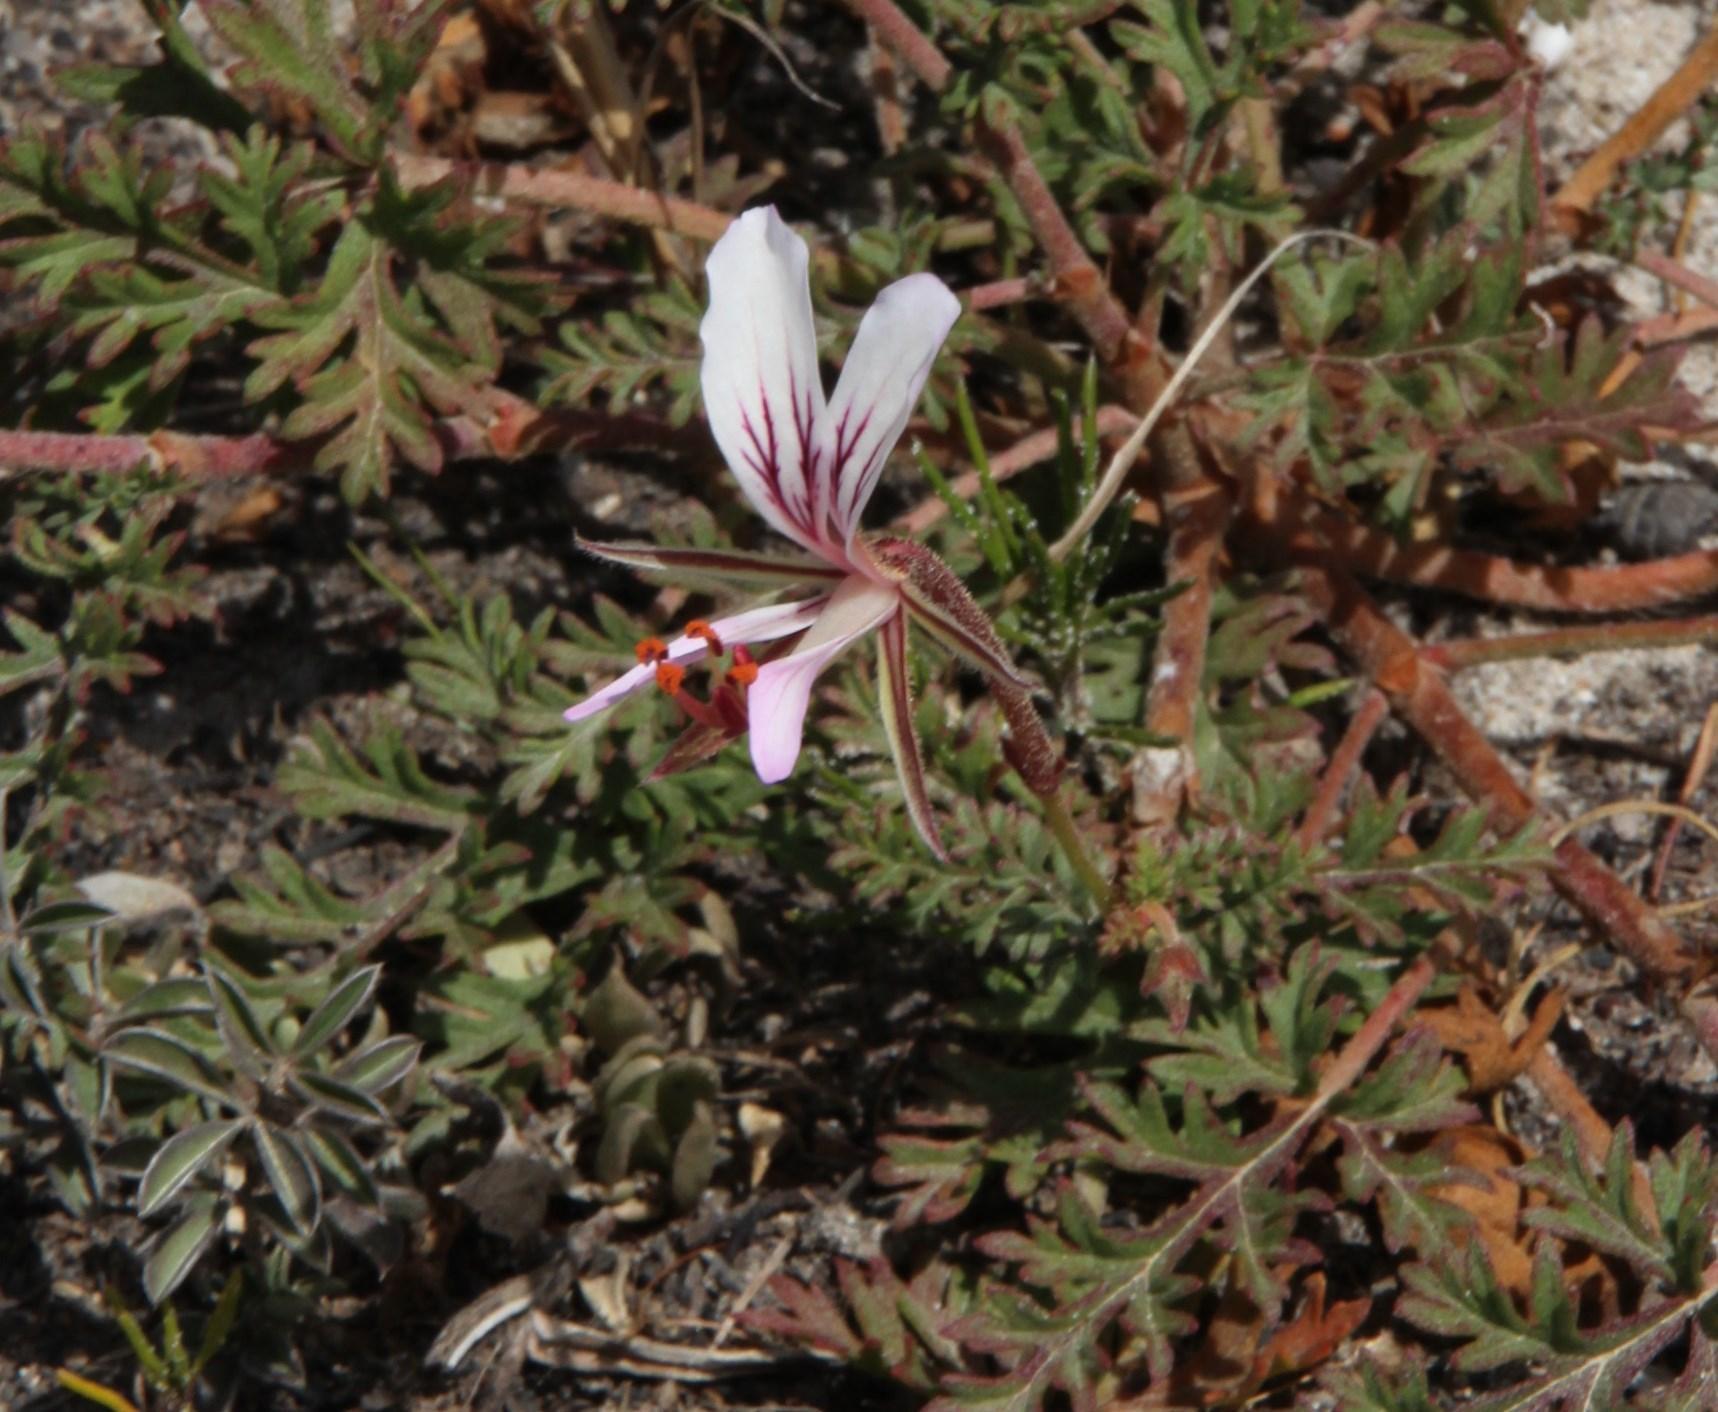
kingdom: Plantae
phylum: Tracheophyta
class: Magnoliopsida
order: Geraniales
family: Geraniaceae
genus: Pelargonium
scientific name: Pelargonium suburbanum
